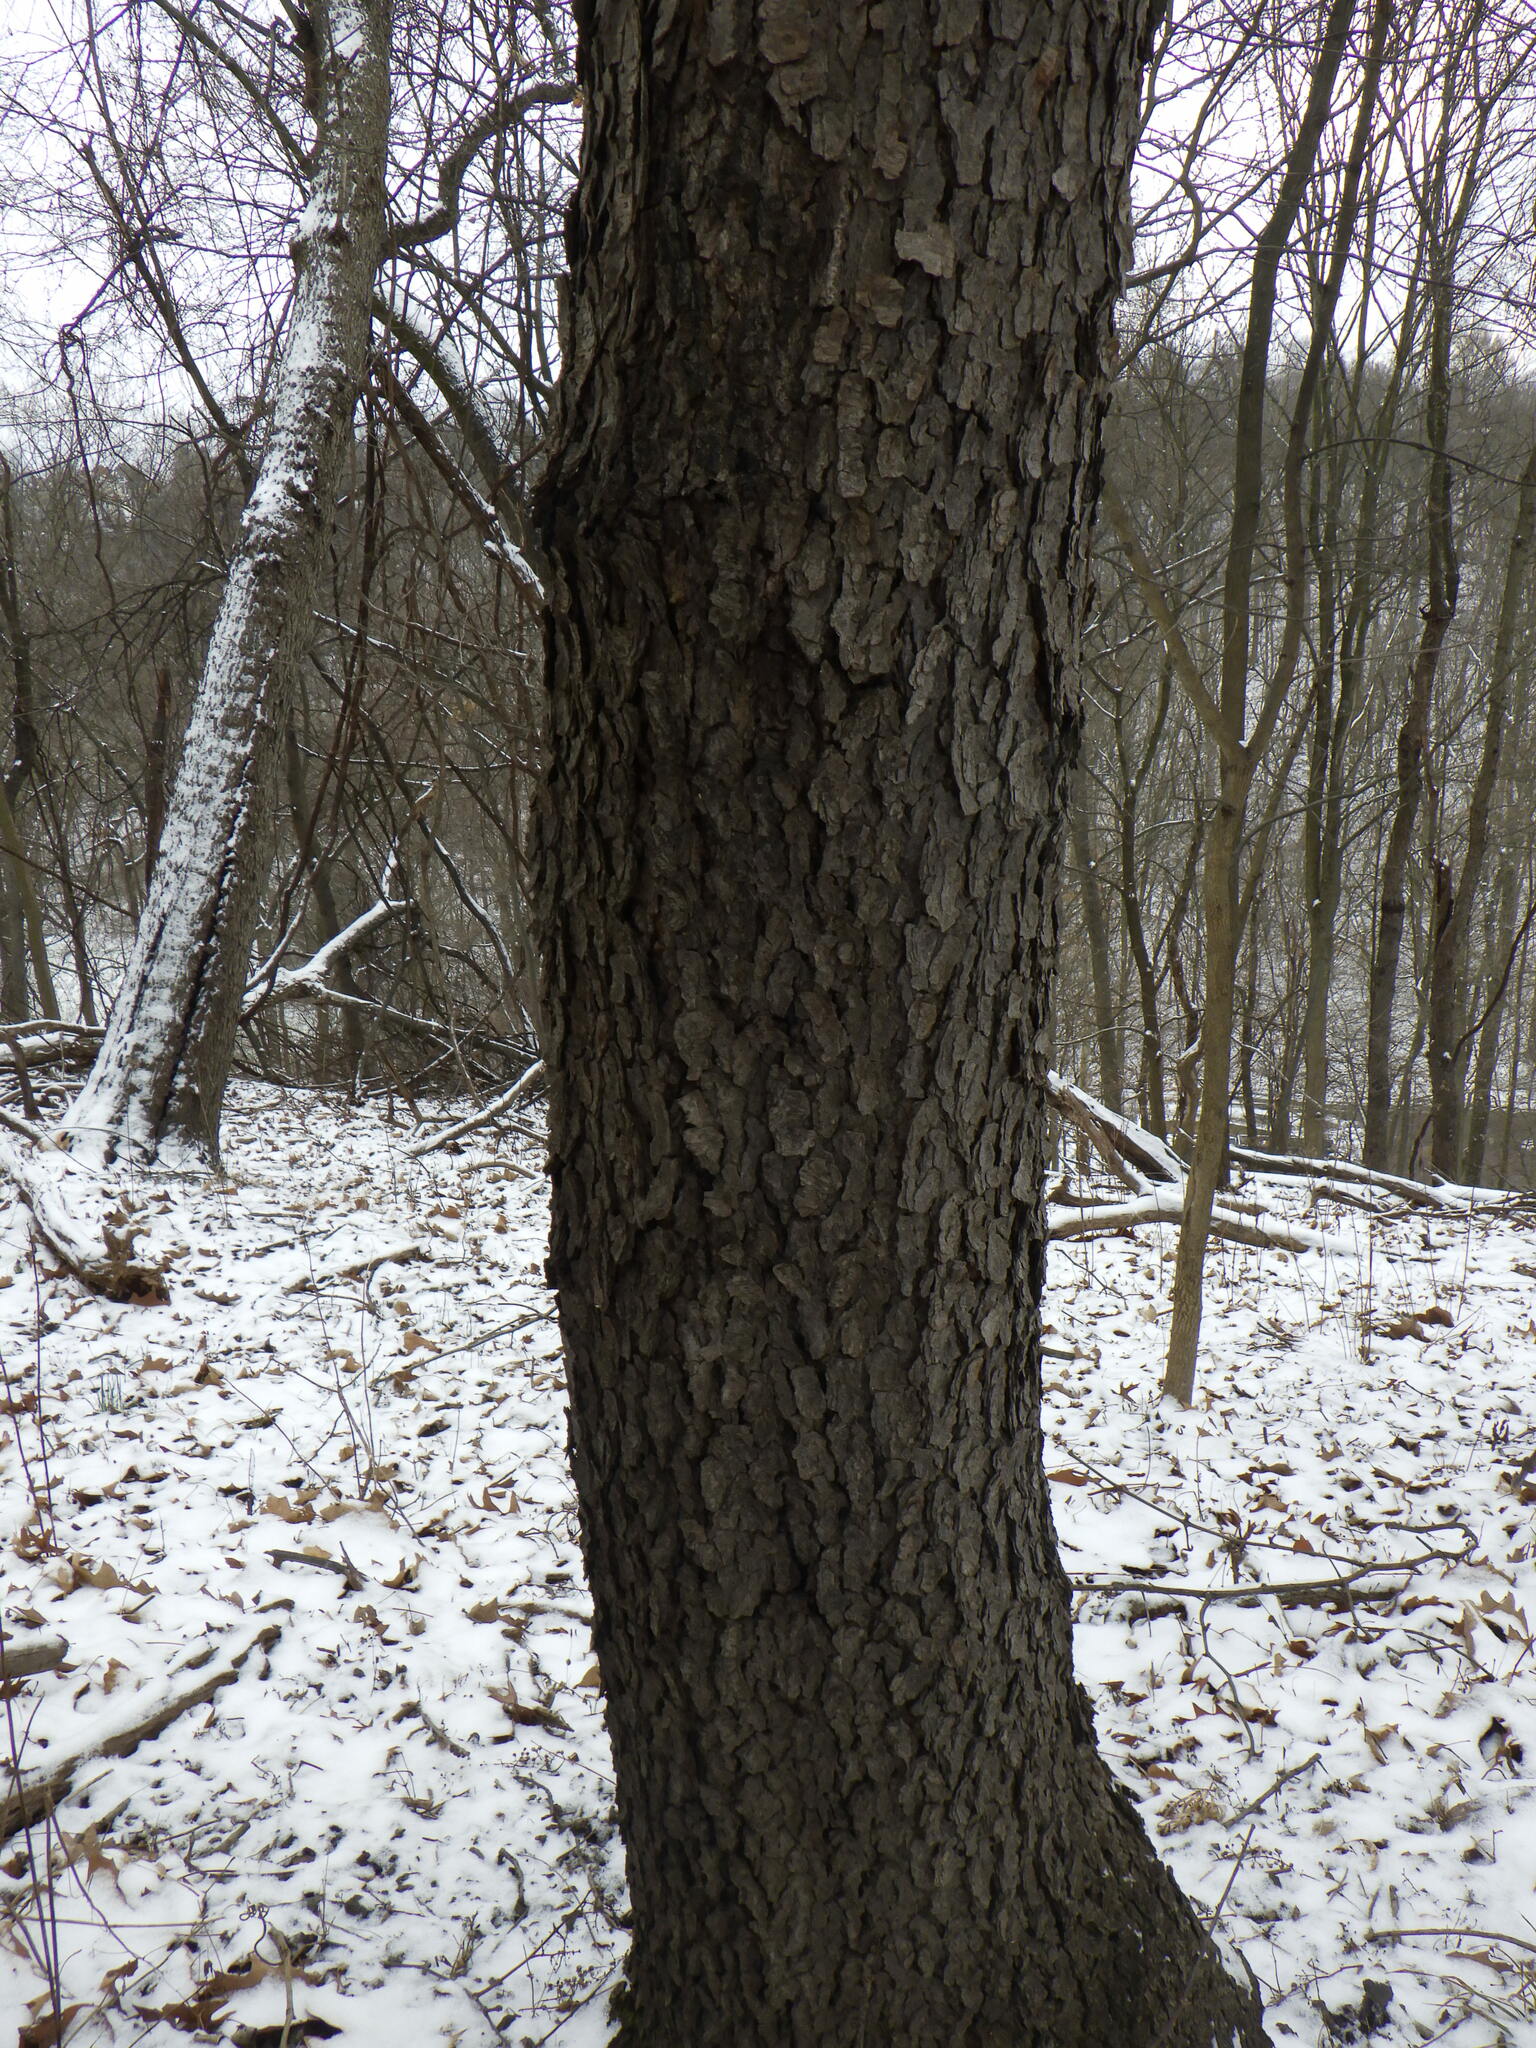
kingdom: Plantae
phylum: Tracheophyta
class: Magnoliopsida
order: Rosales
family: Rosaceae
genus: Prunus
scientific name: Prunus serotina
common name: Black cherry
